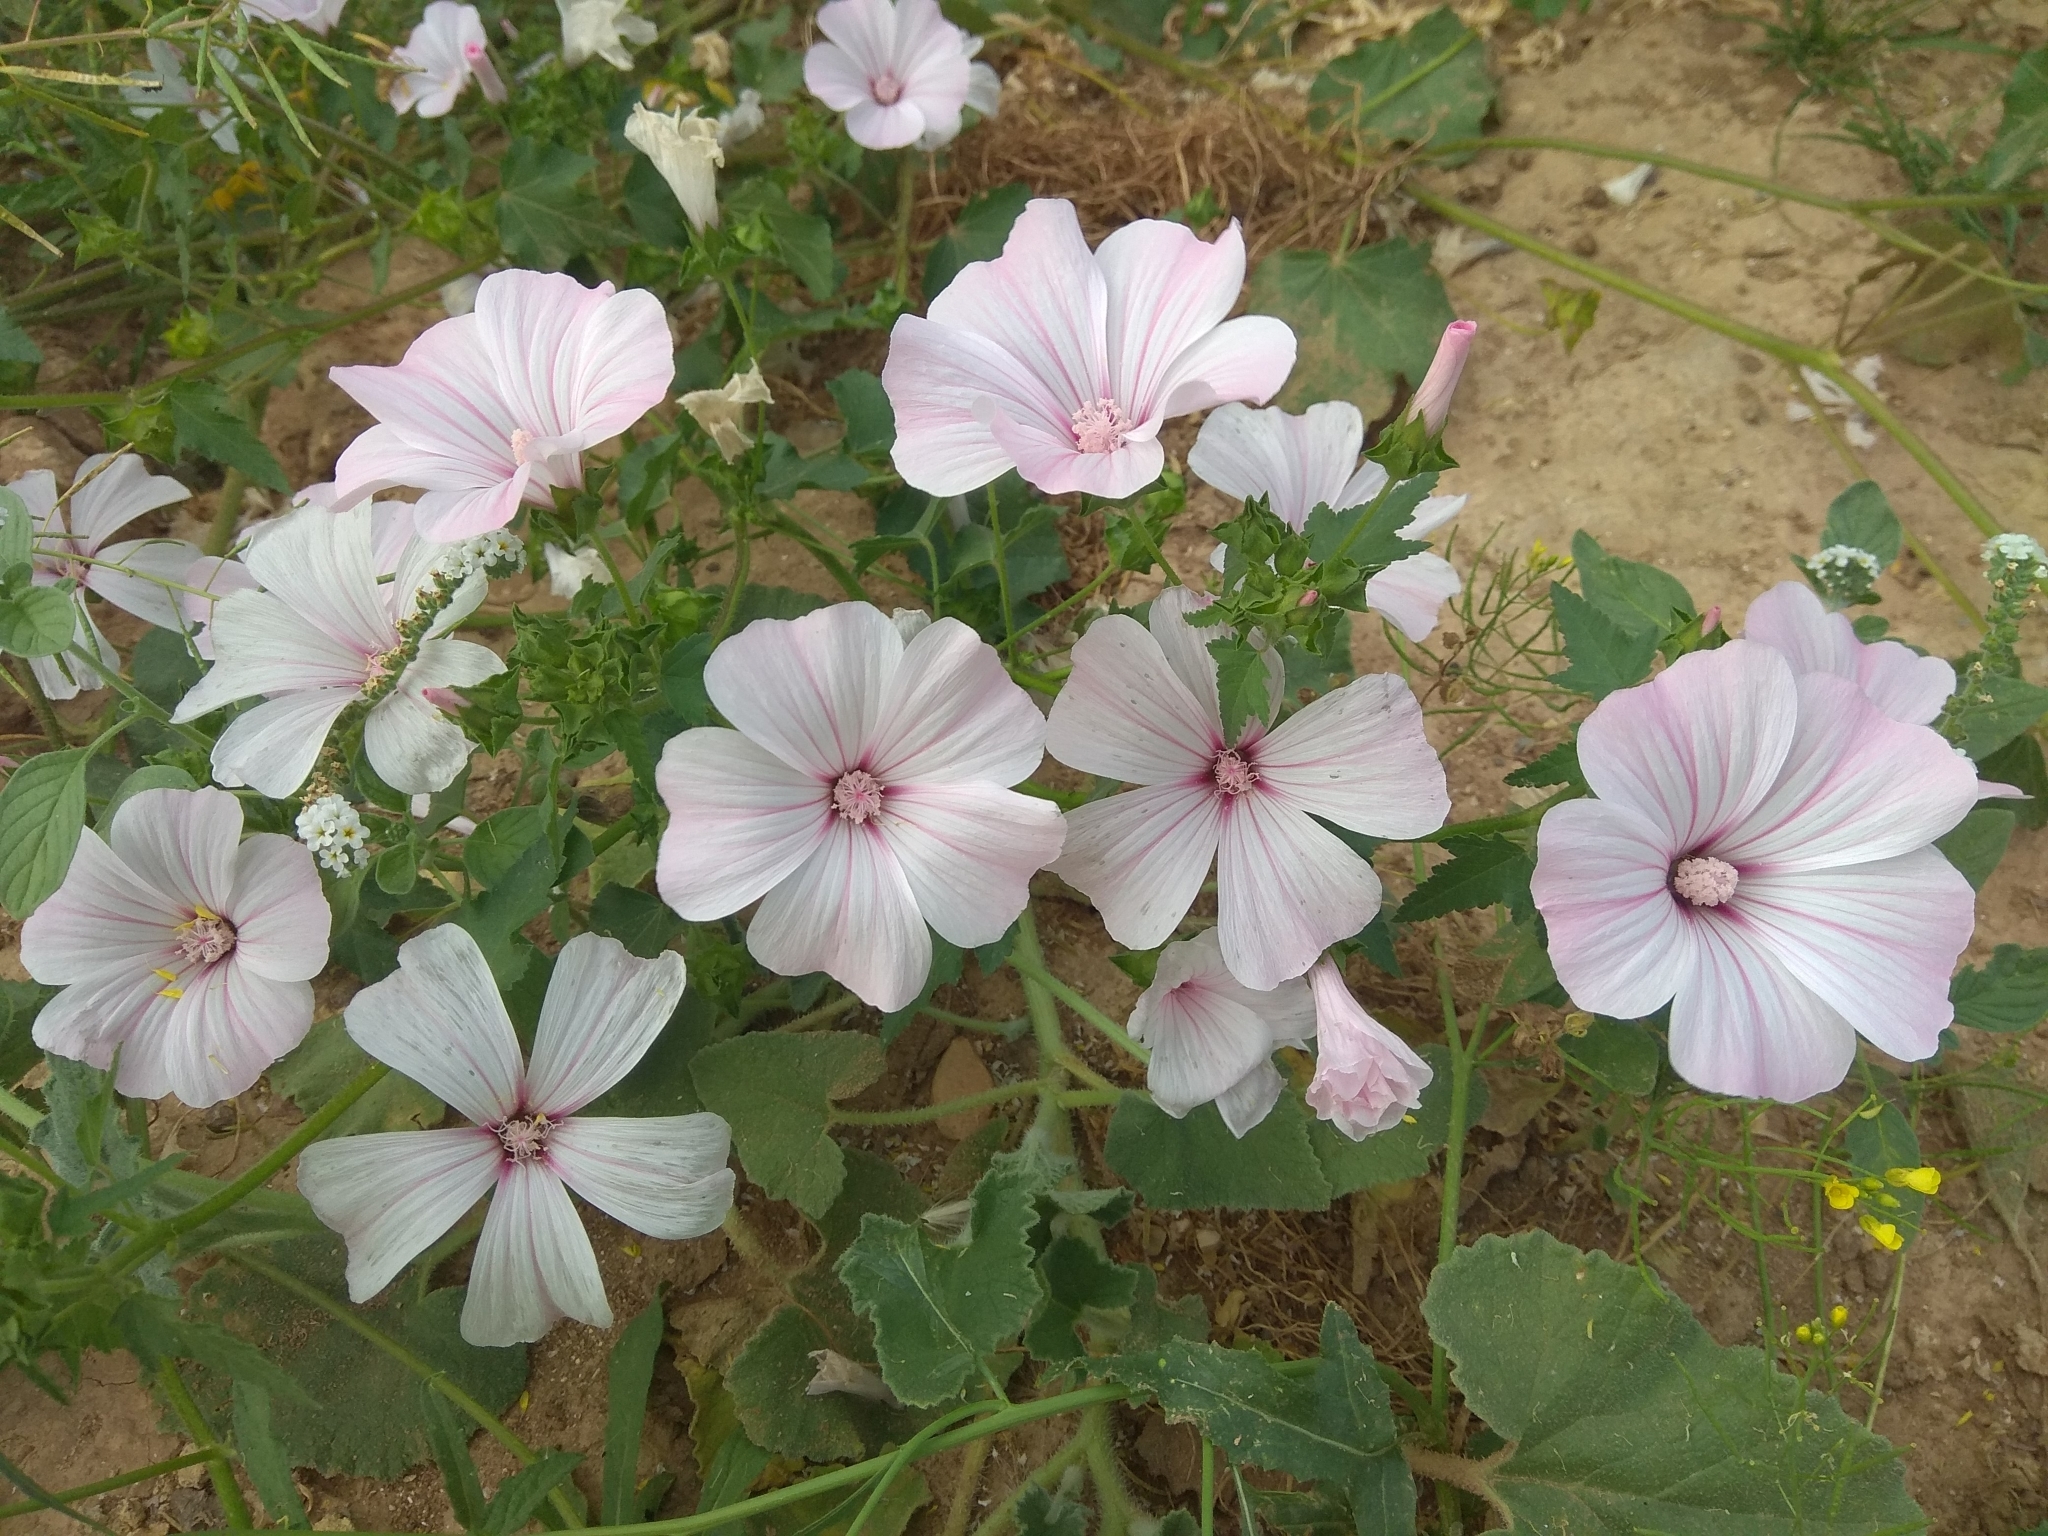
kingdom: Plantae
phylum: Tracheophyta
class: Magnoliopsida
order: Malvales
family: Malvaceae
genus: Malva
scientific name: Malva trimestris
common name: Royal mallow
